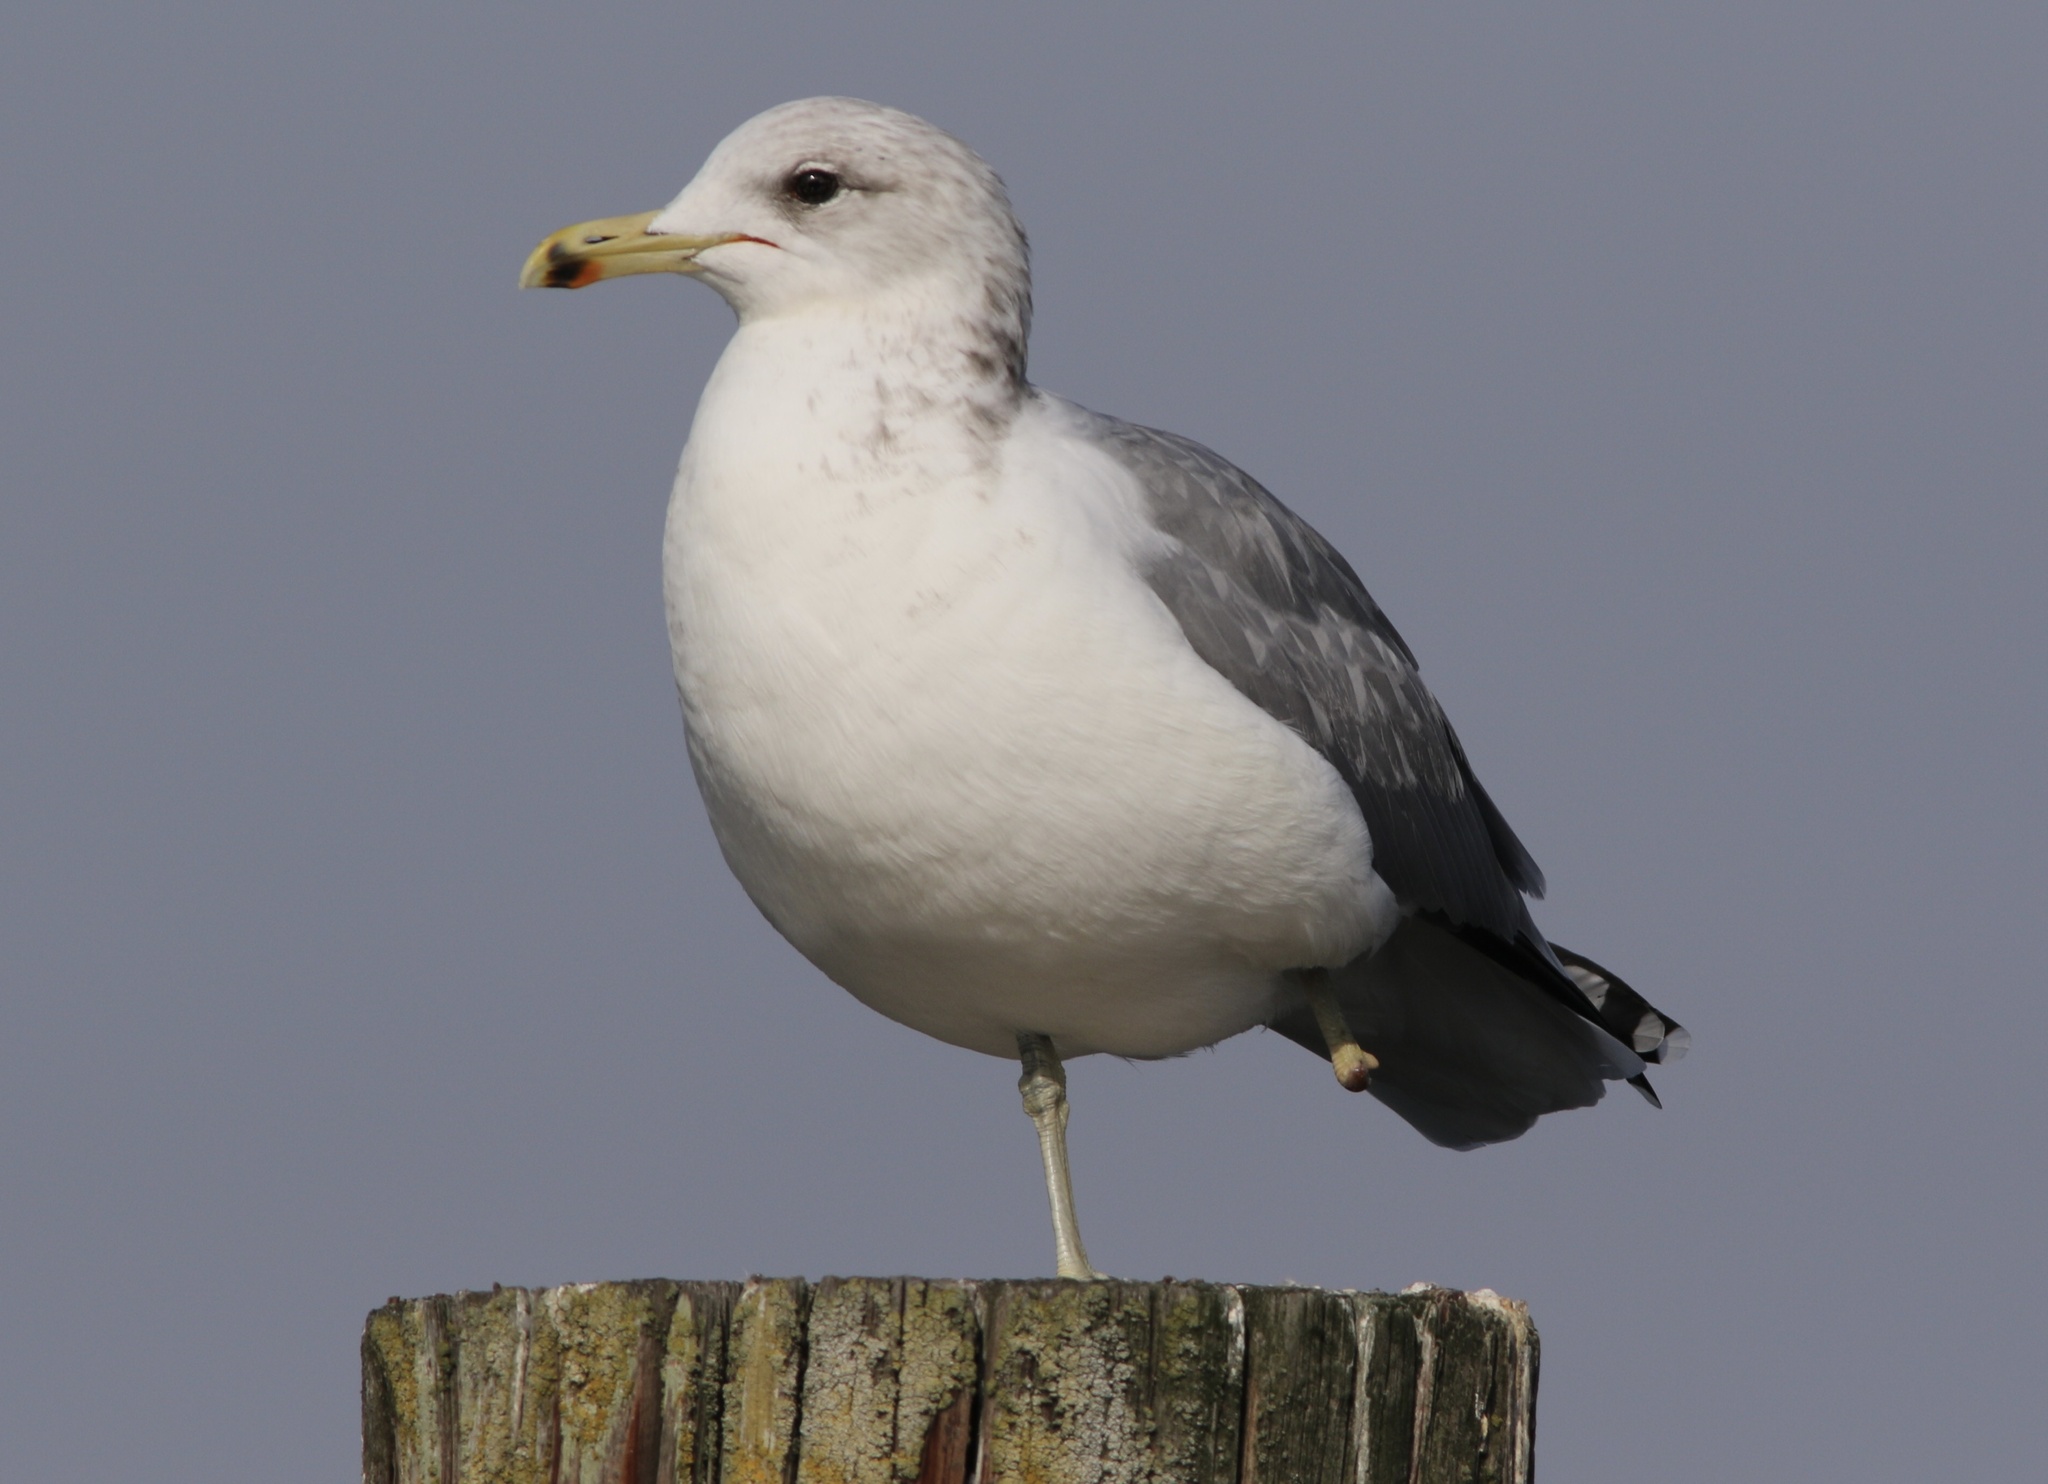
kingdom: Animalia
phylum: Chordata
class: Aves
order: Charadriiformes
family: Laridae
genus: Larus
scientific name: Larus californicus
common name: California gull
